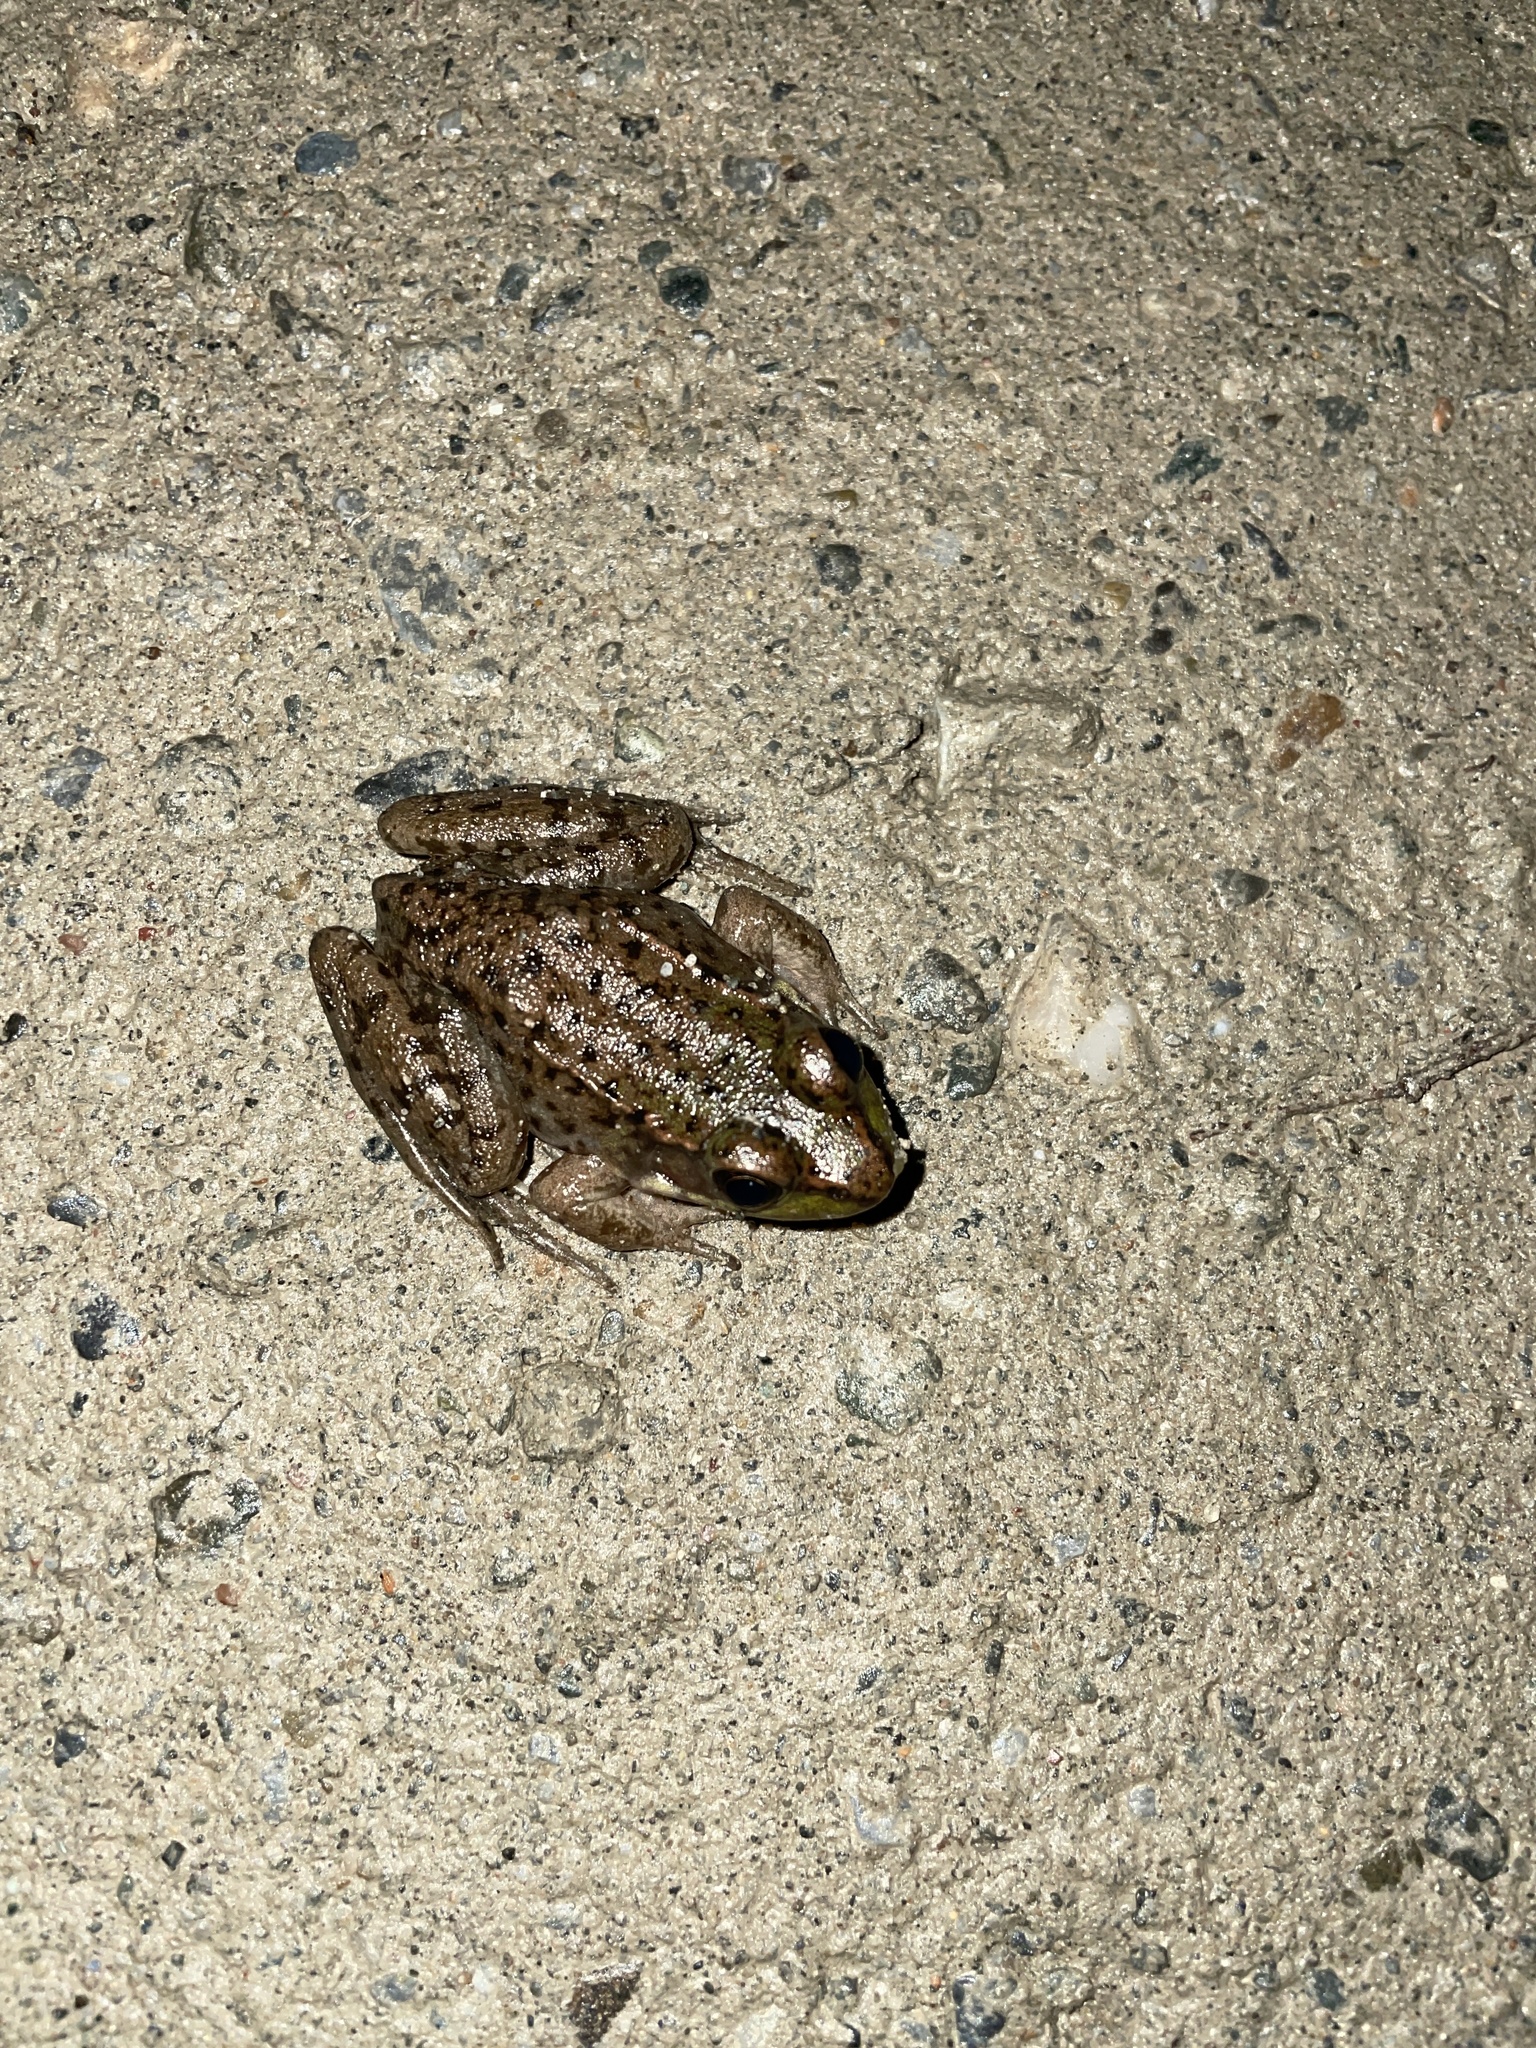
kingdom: Animalia
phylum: Chordata
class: Amphibia
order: Anura
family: Ranidae
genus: Lithobates
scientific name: Lithobates clamitans
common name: Green frog
